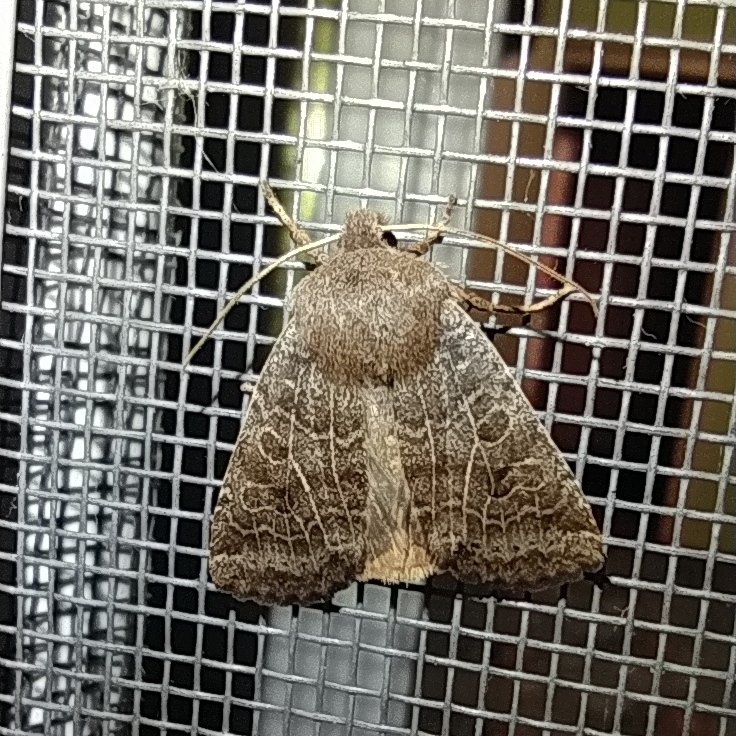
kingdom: Animalia
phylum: Arthropoda
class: Insecta
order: Lepidoptera
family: Noctuidae
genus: Conistra
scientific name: Conistra vaccinii
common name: Chestnut
